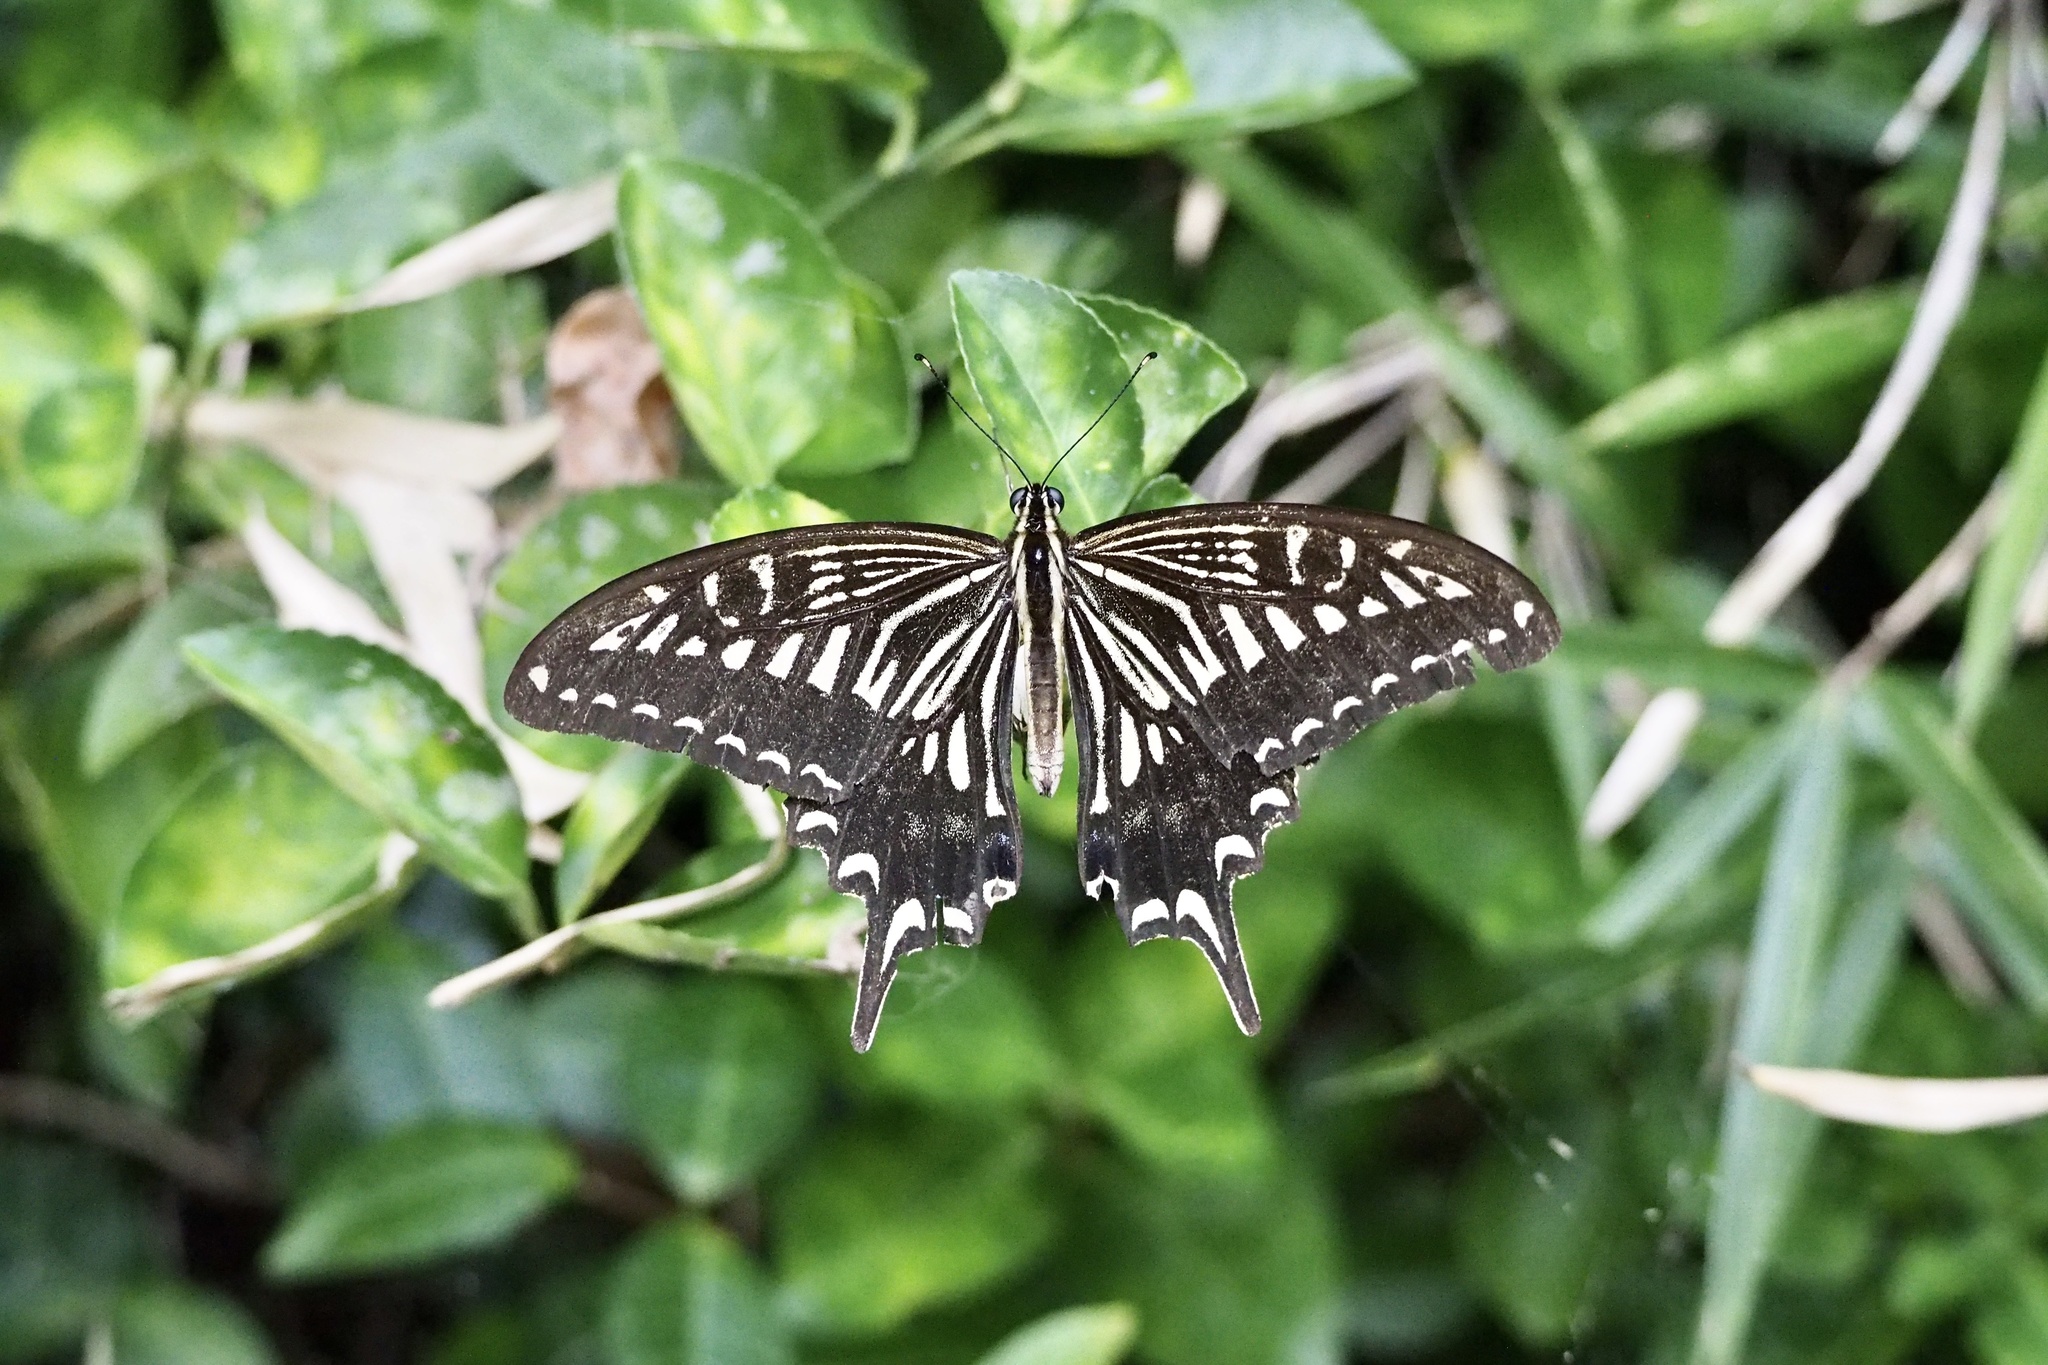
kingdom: Animalia
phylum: Arthropoda
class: Insecta
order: Lepidoptera
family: Papilionidae
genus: Papilio
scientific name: Papilio xuthus
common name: Asian swallowtail
